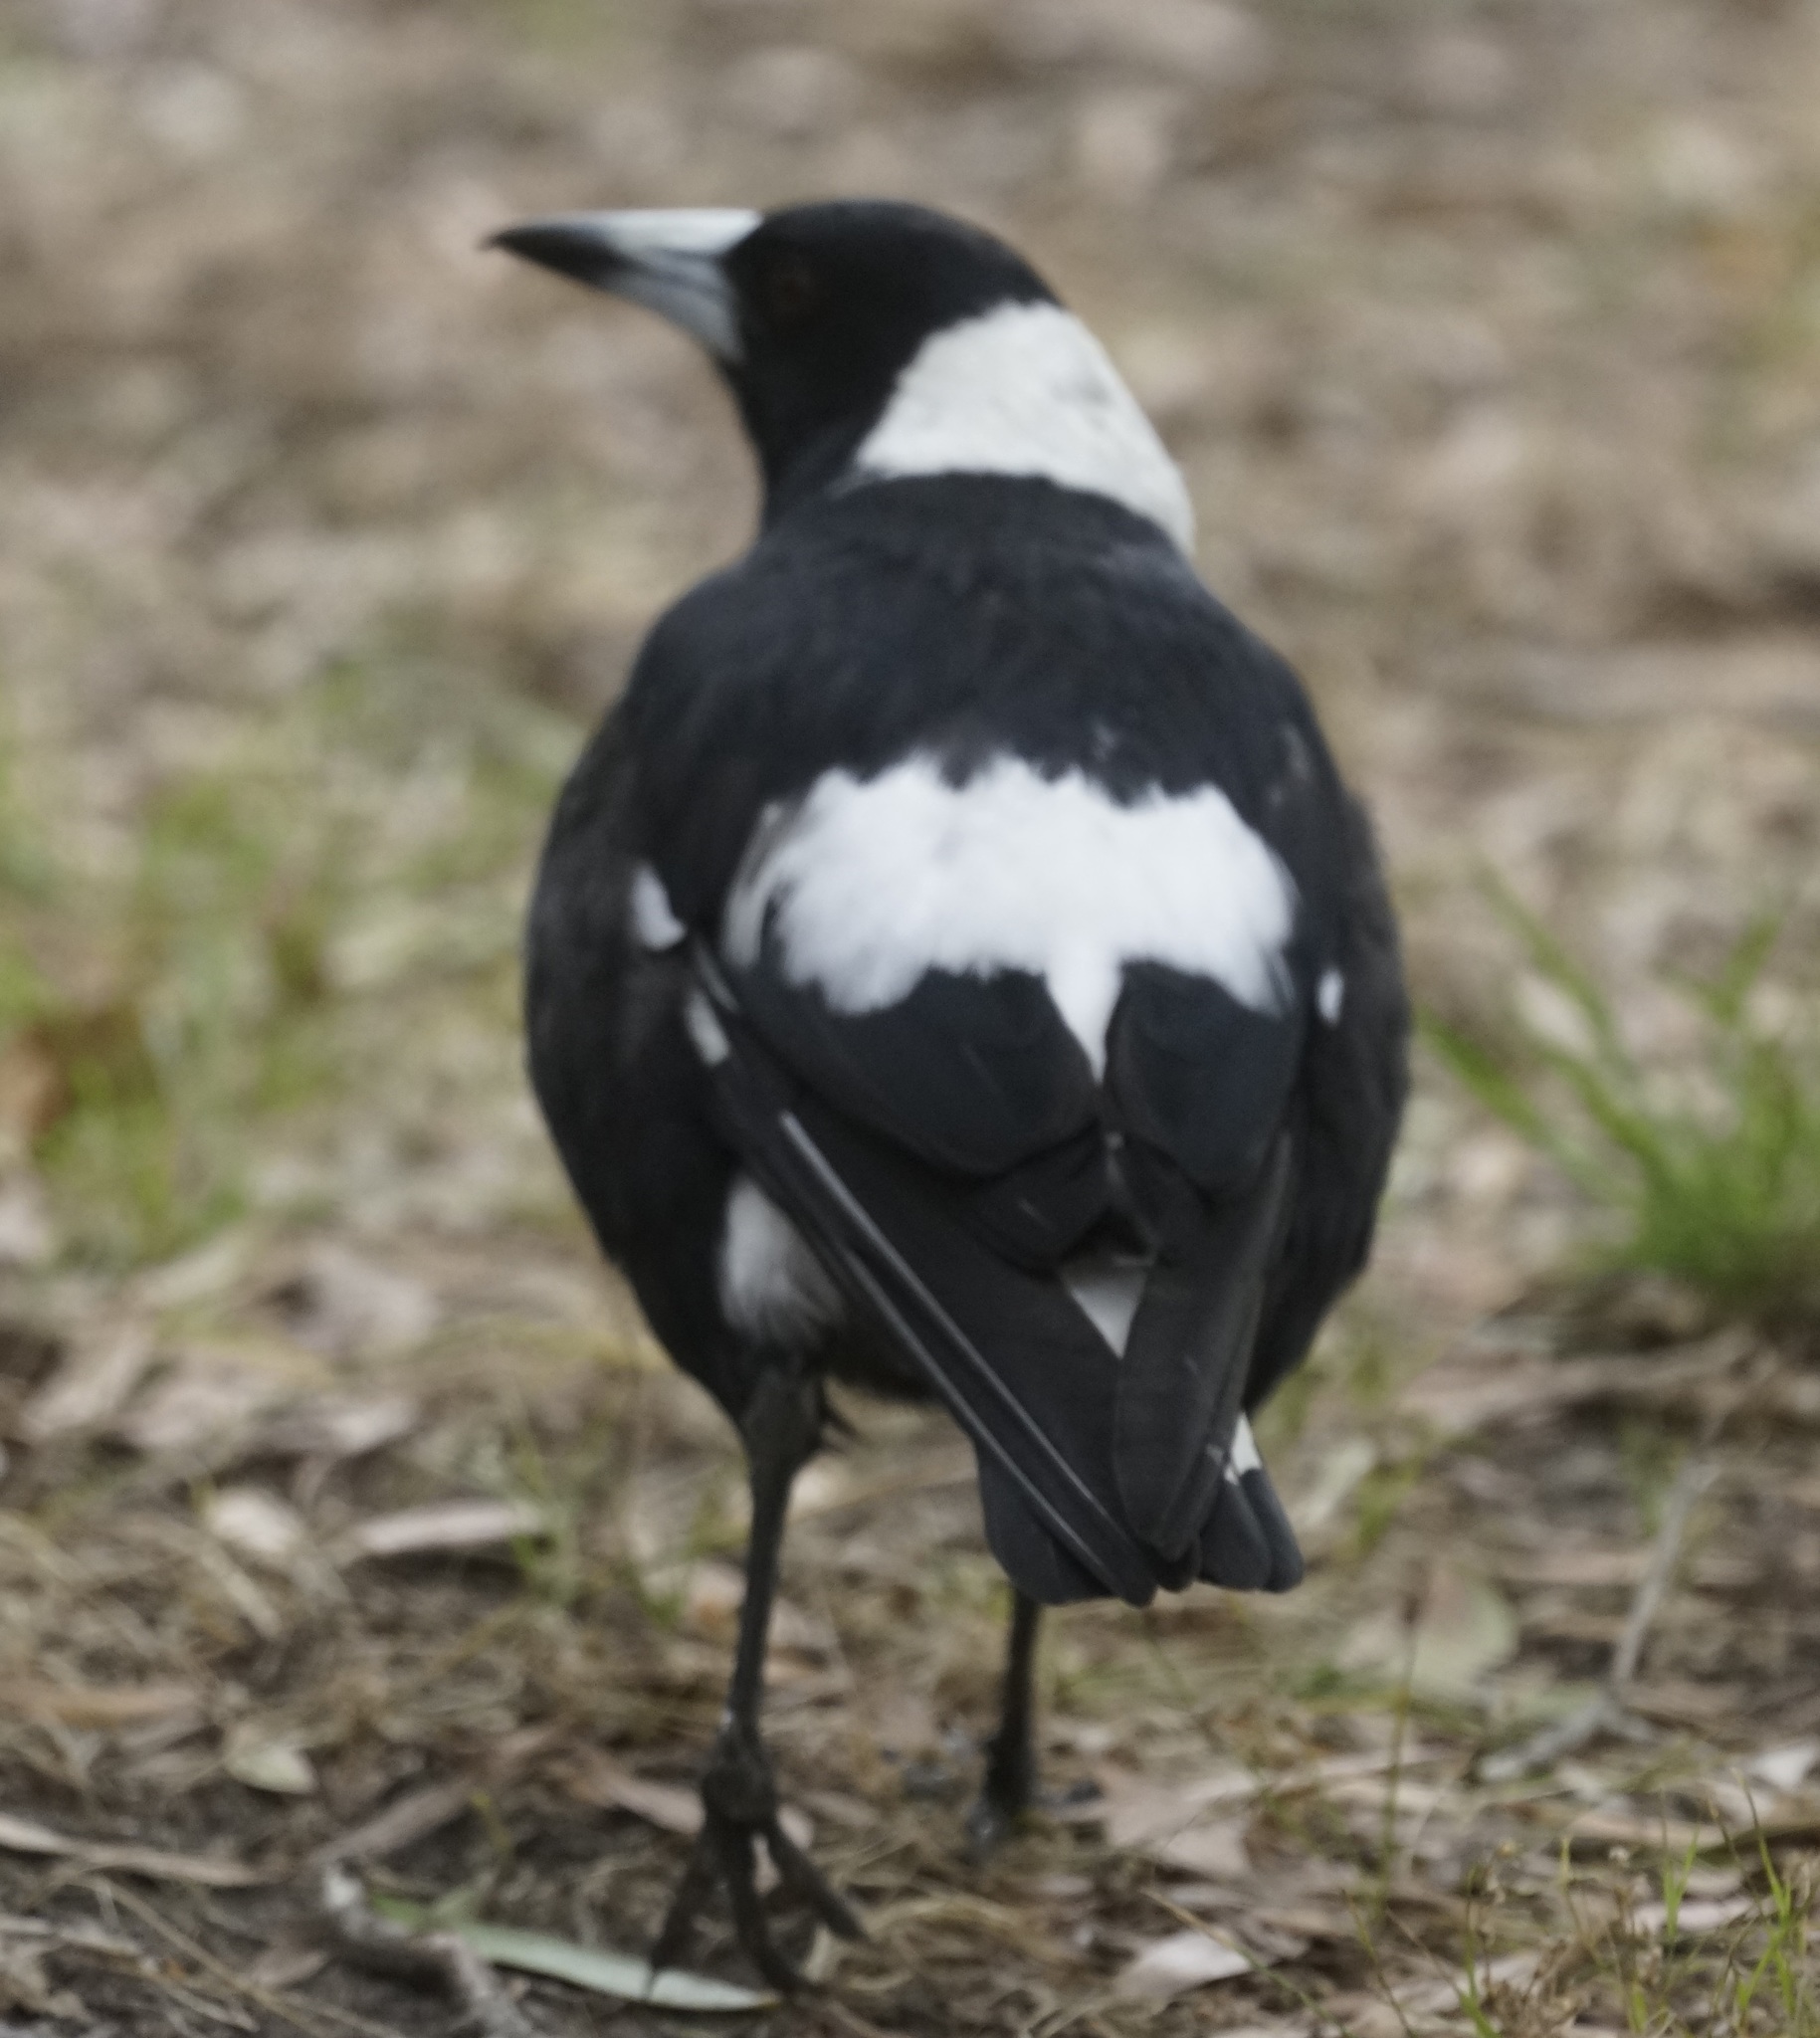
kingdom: Animalia
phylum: Chordata
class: Aves
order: Passeriformes
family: Cracticidae
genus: Gymnorhina
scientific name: Gymnorhina tibicen
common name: Australian magpie
